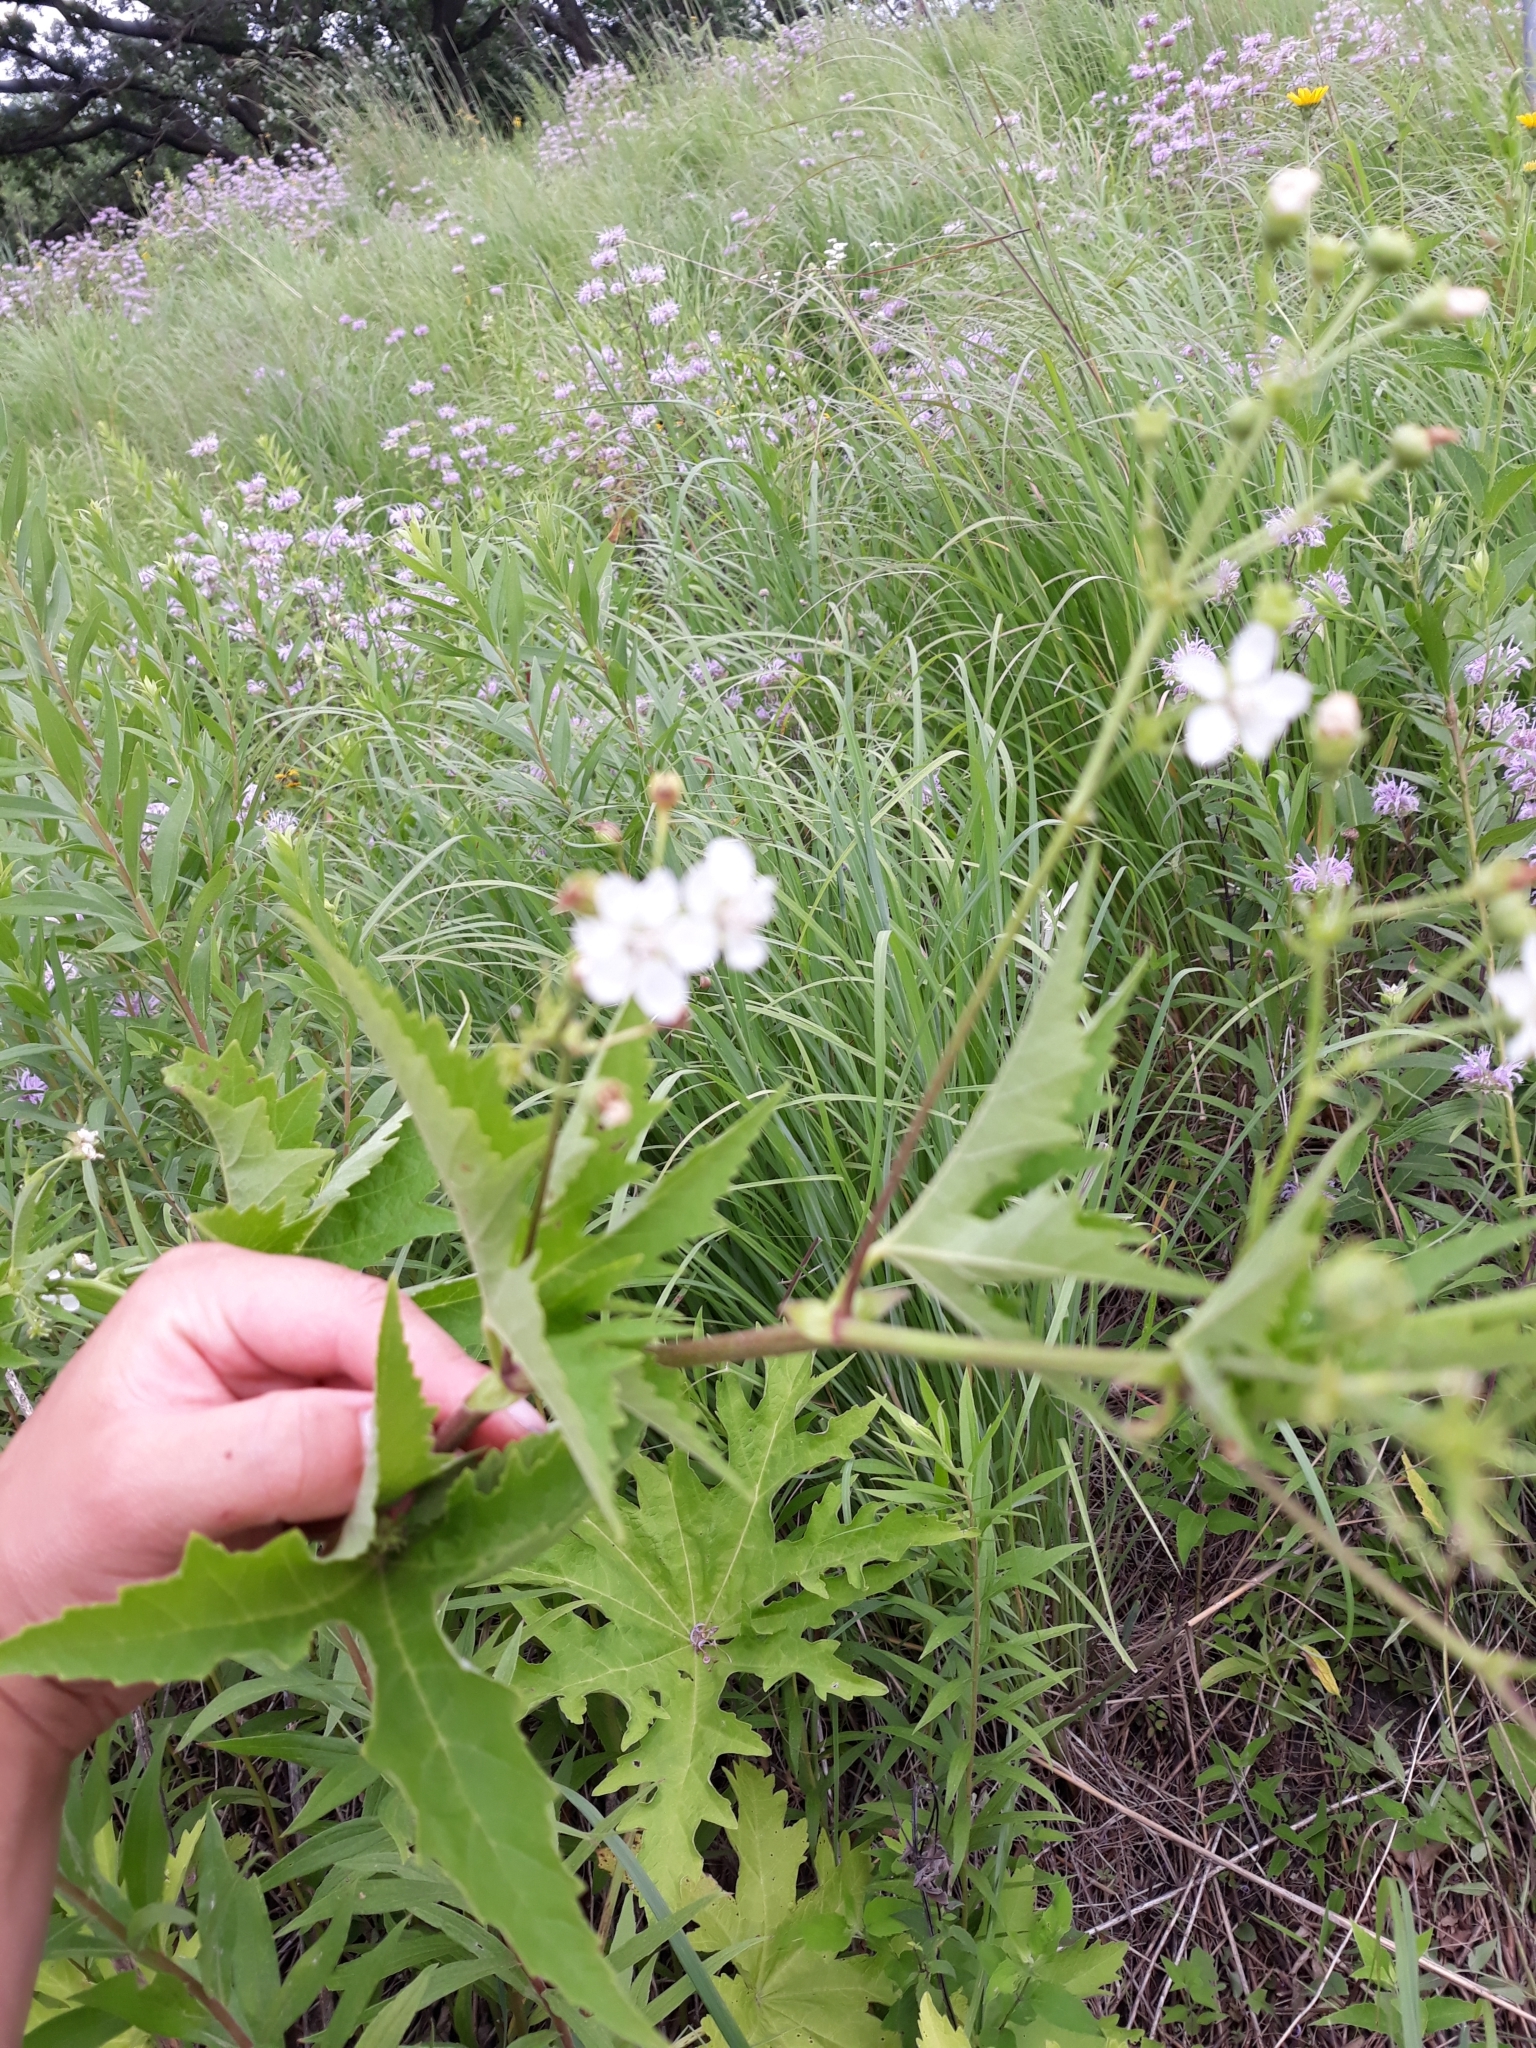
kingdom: Plantae
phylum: Tracheophyta
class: Magnoliopsida
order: Malvales
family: Malvaceae
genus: Napaea
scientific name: Napaea dioica
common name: Glade-mallow
